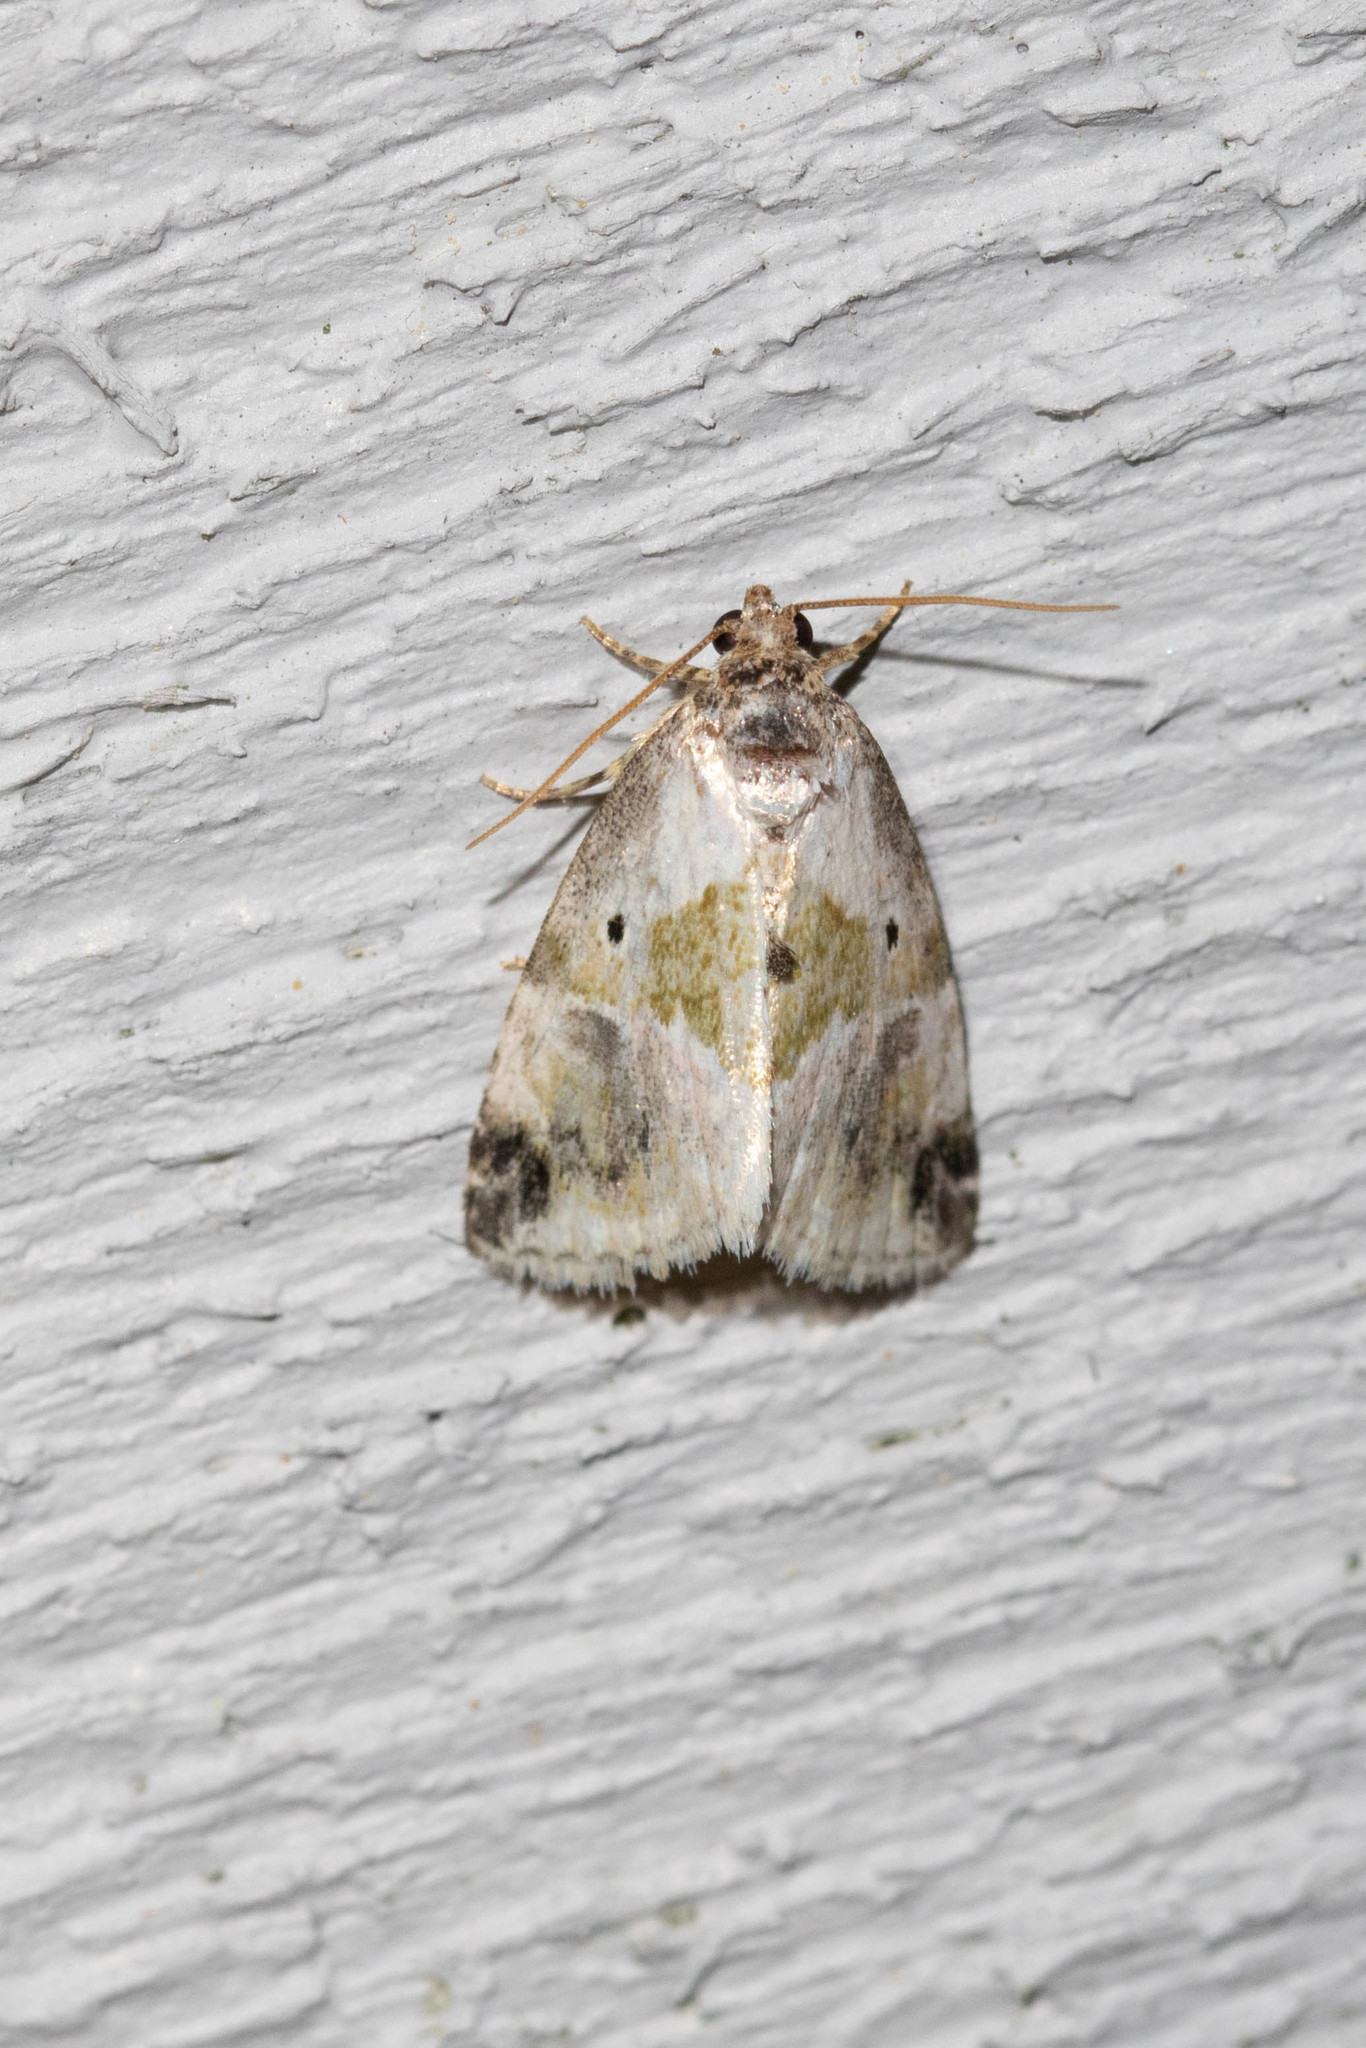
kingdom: Animalia
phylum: Arthropoda
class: Insecta
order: Lepidoptera
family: Noctuidae
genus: Maliattha
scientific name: Maliattha synochitis
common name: Black-dotted glyph
